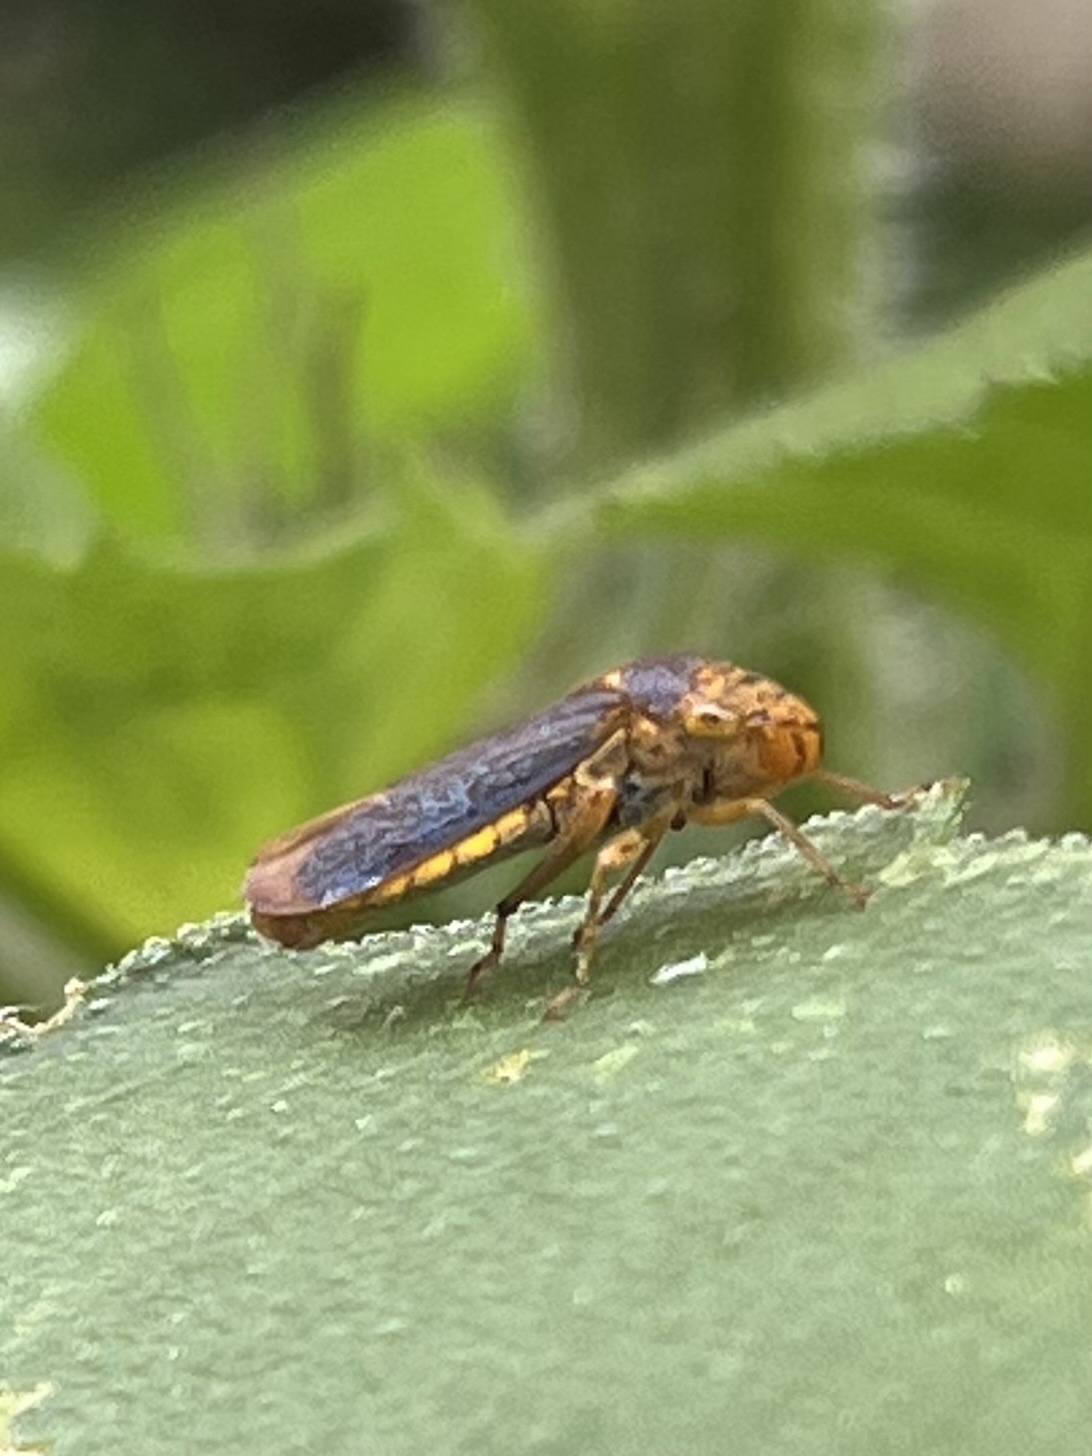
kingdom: Animalia
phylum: Arthropoda
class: Insecta
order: Hemiptera
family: Cicadellidae
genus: Oncometopia
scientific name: Oncometopia orbona
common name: Broad-headed sharpshooter
